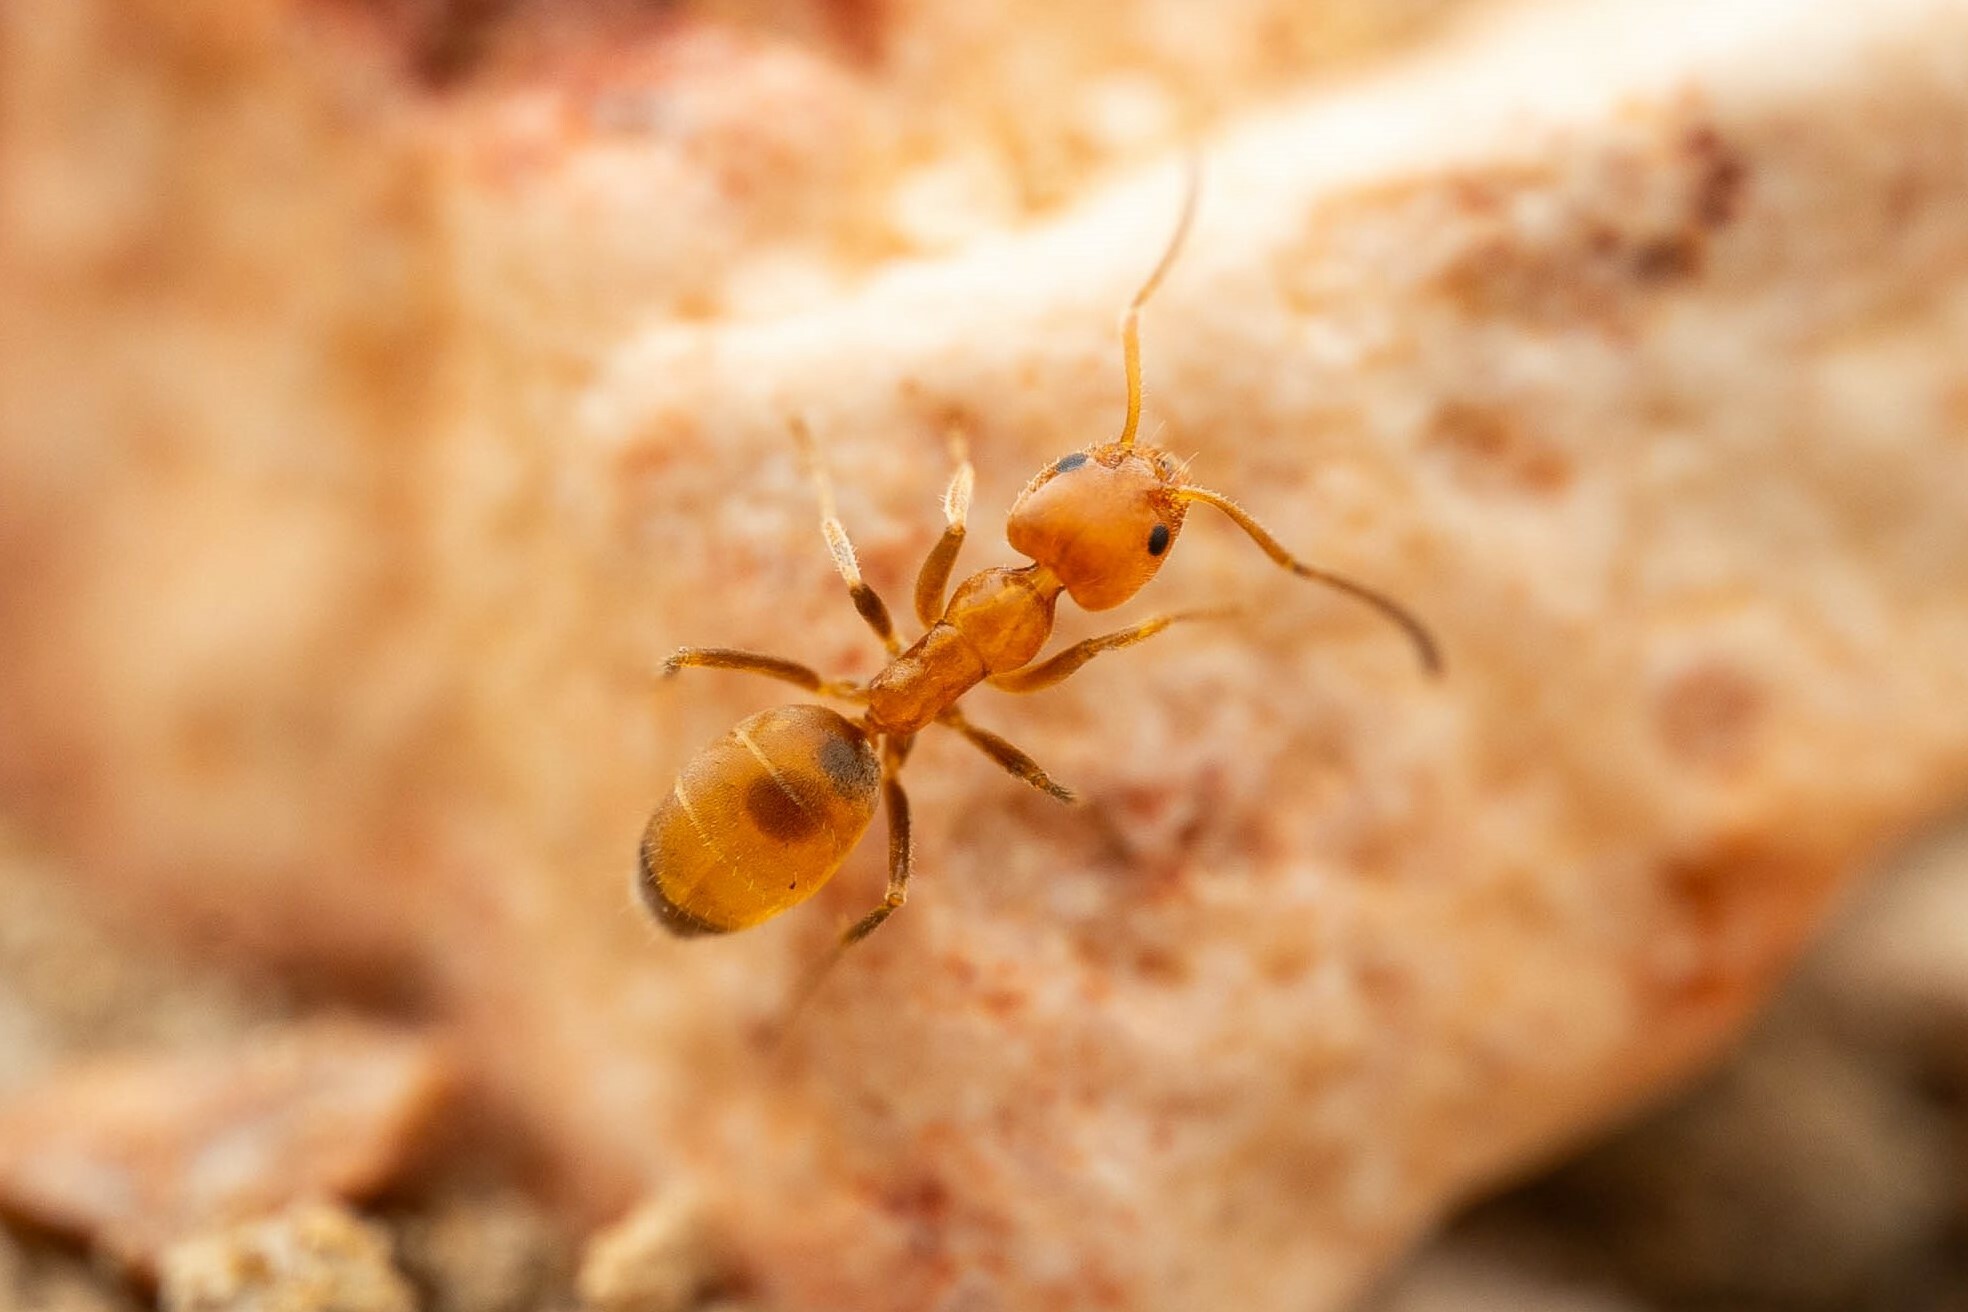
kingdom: Animalia
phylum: Arthropoda
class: Insecta
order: Hymenoptera
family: Formicidae
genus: Forelius
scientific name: Forelius mccooki
